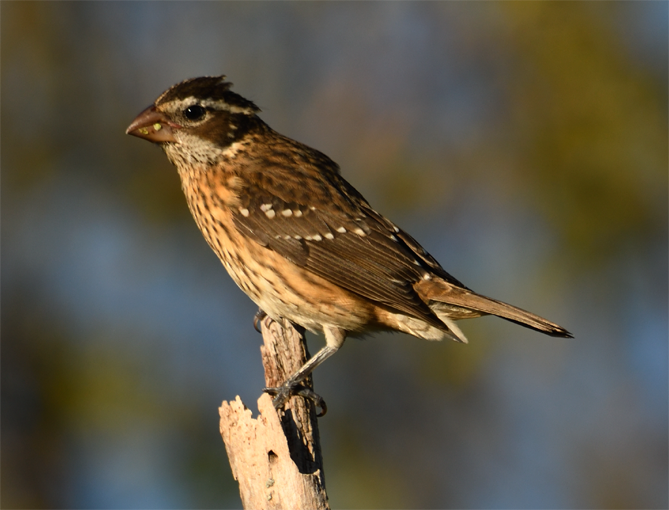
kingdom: Animalia
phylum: Chordata
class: Aves
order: Passeriformes
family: Cardinalidae
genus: Pheucticus
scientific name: Pheucticus ludovicianus
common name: Rose-breasted grosbeak
